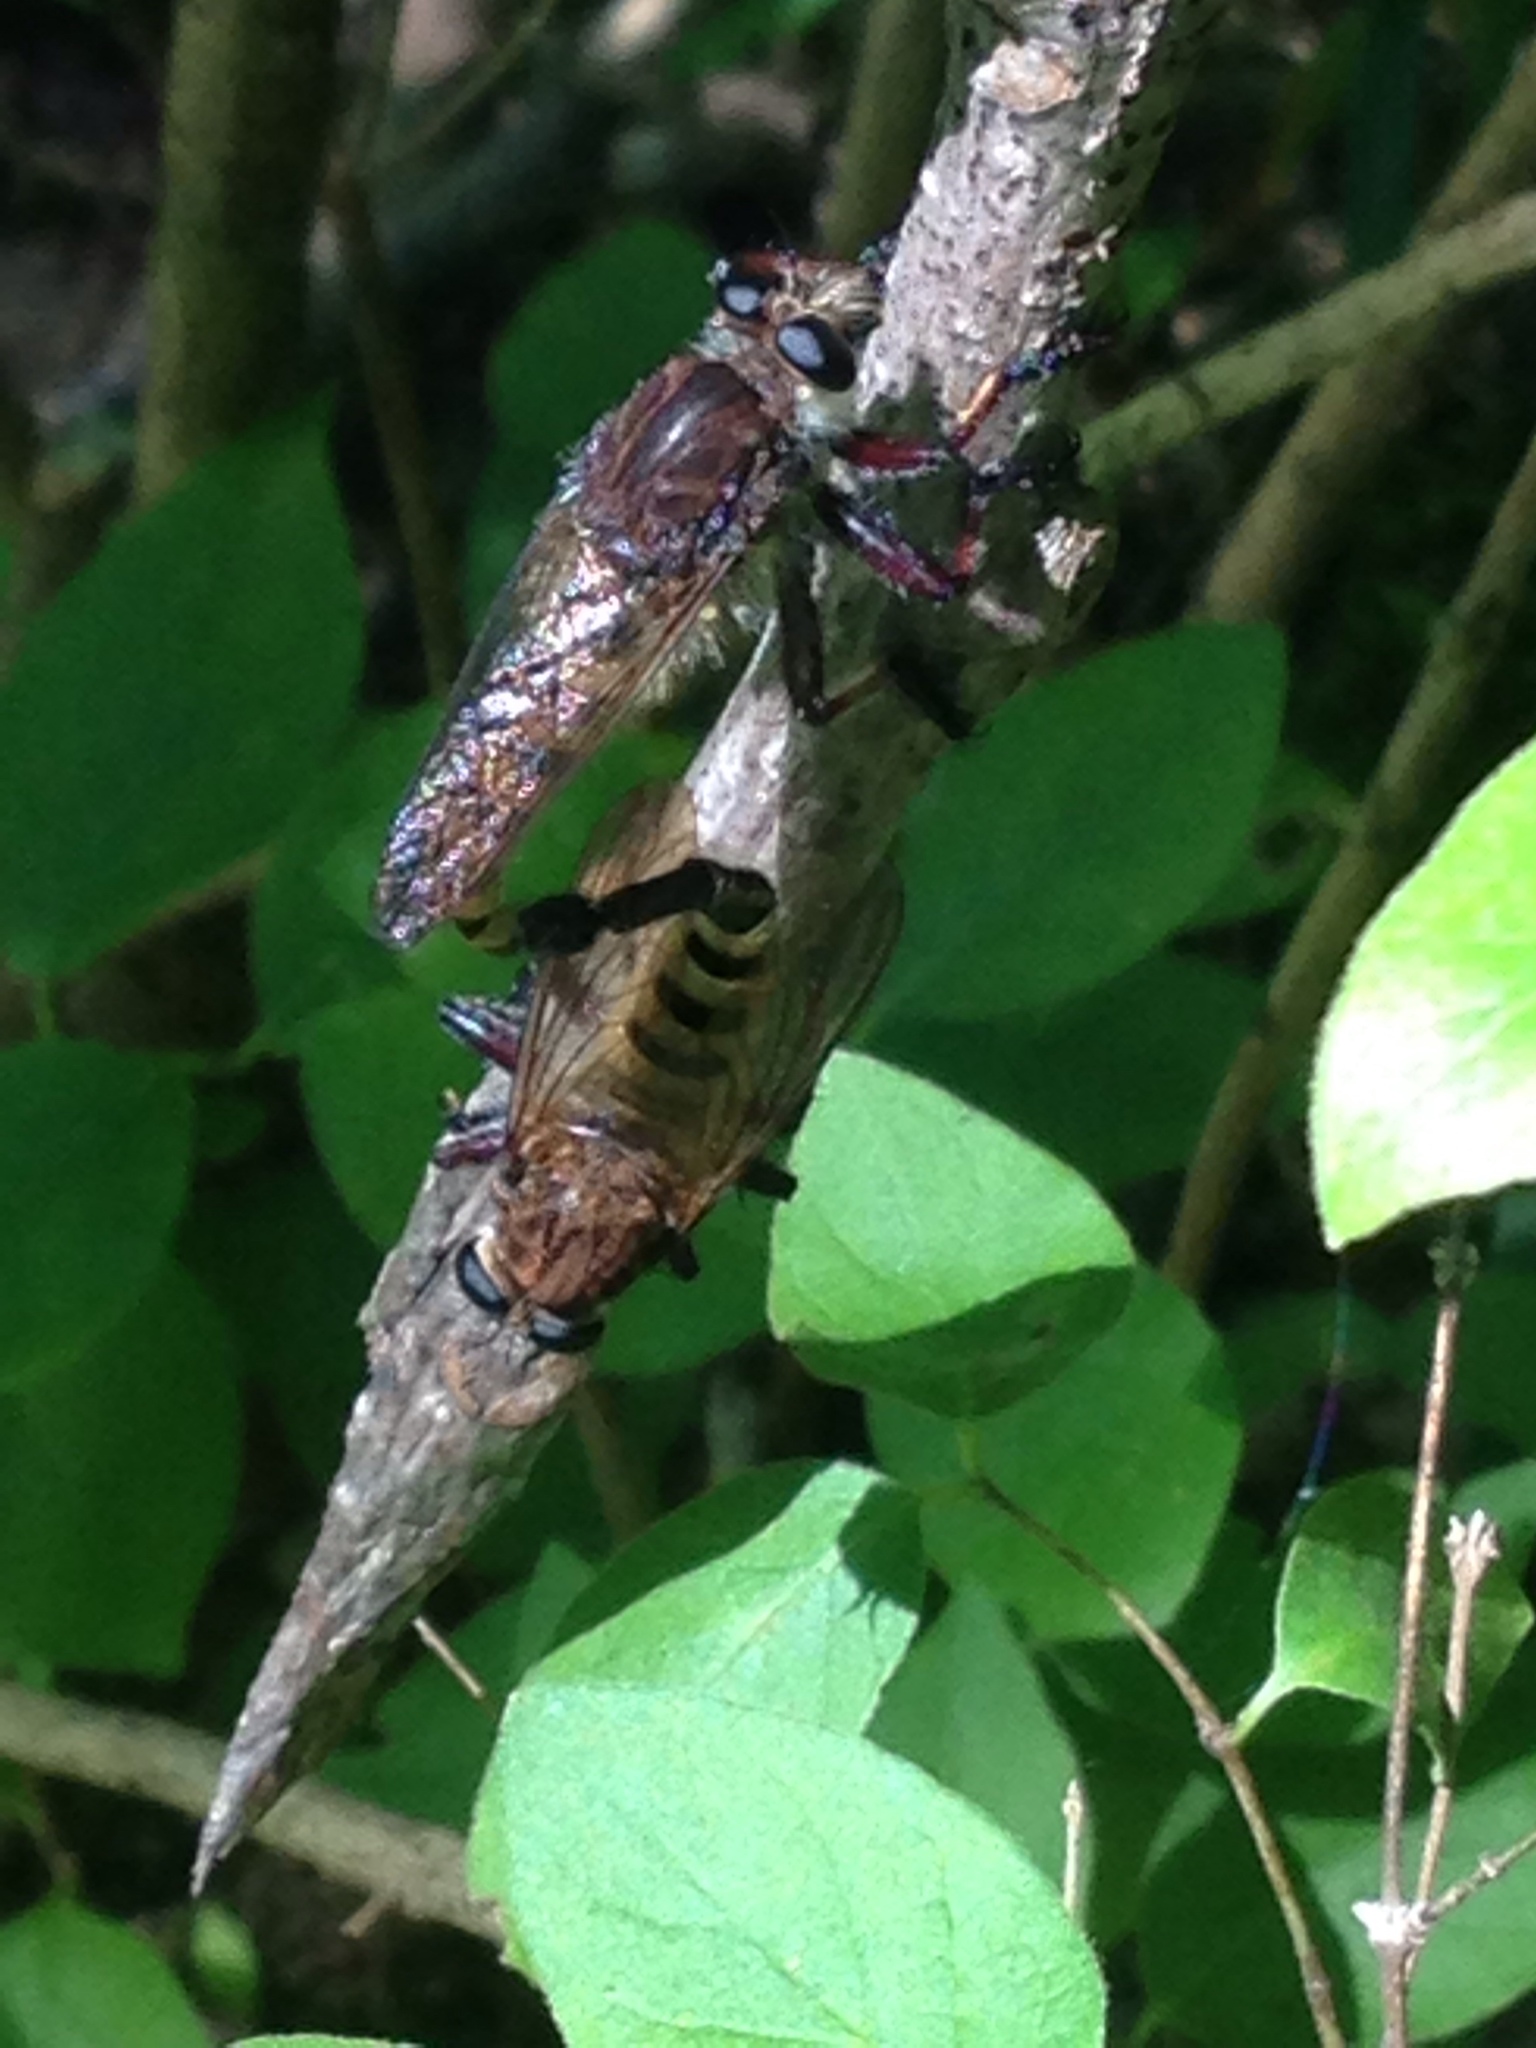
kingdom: Animalia
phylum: Arthropoda
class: Insecta
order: Diptera
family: Asilidae
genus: Promachus
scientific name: Promachus hinei
